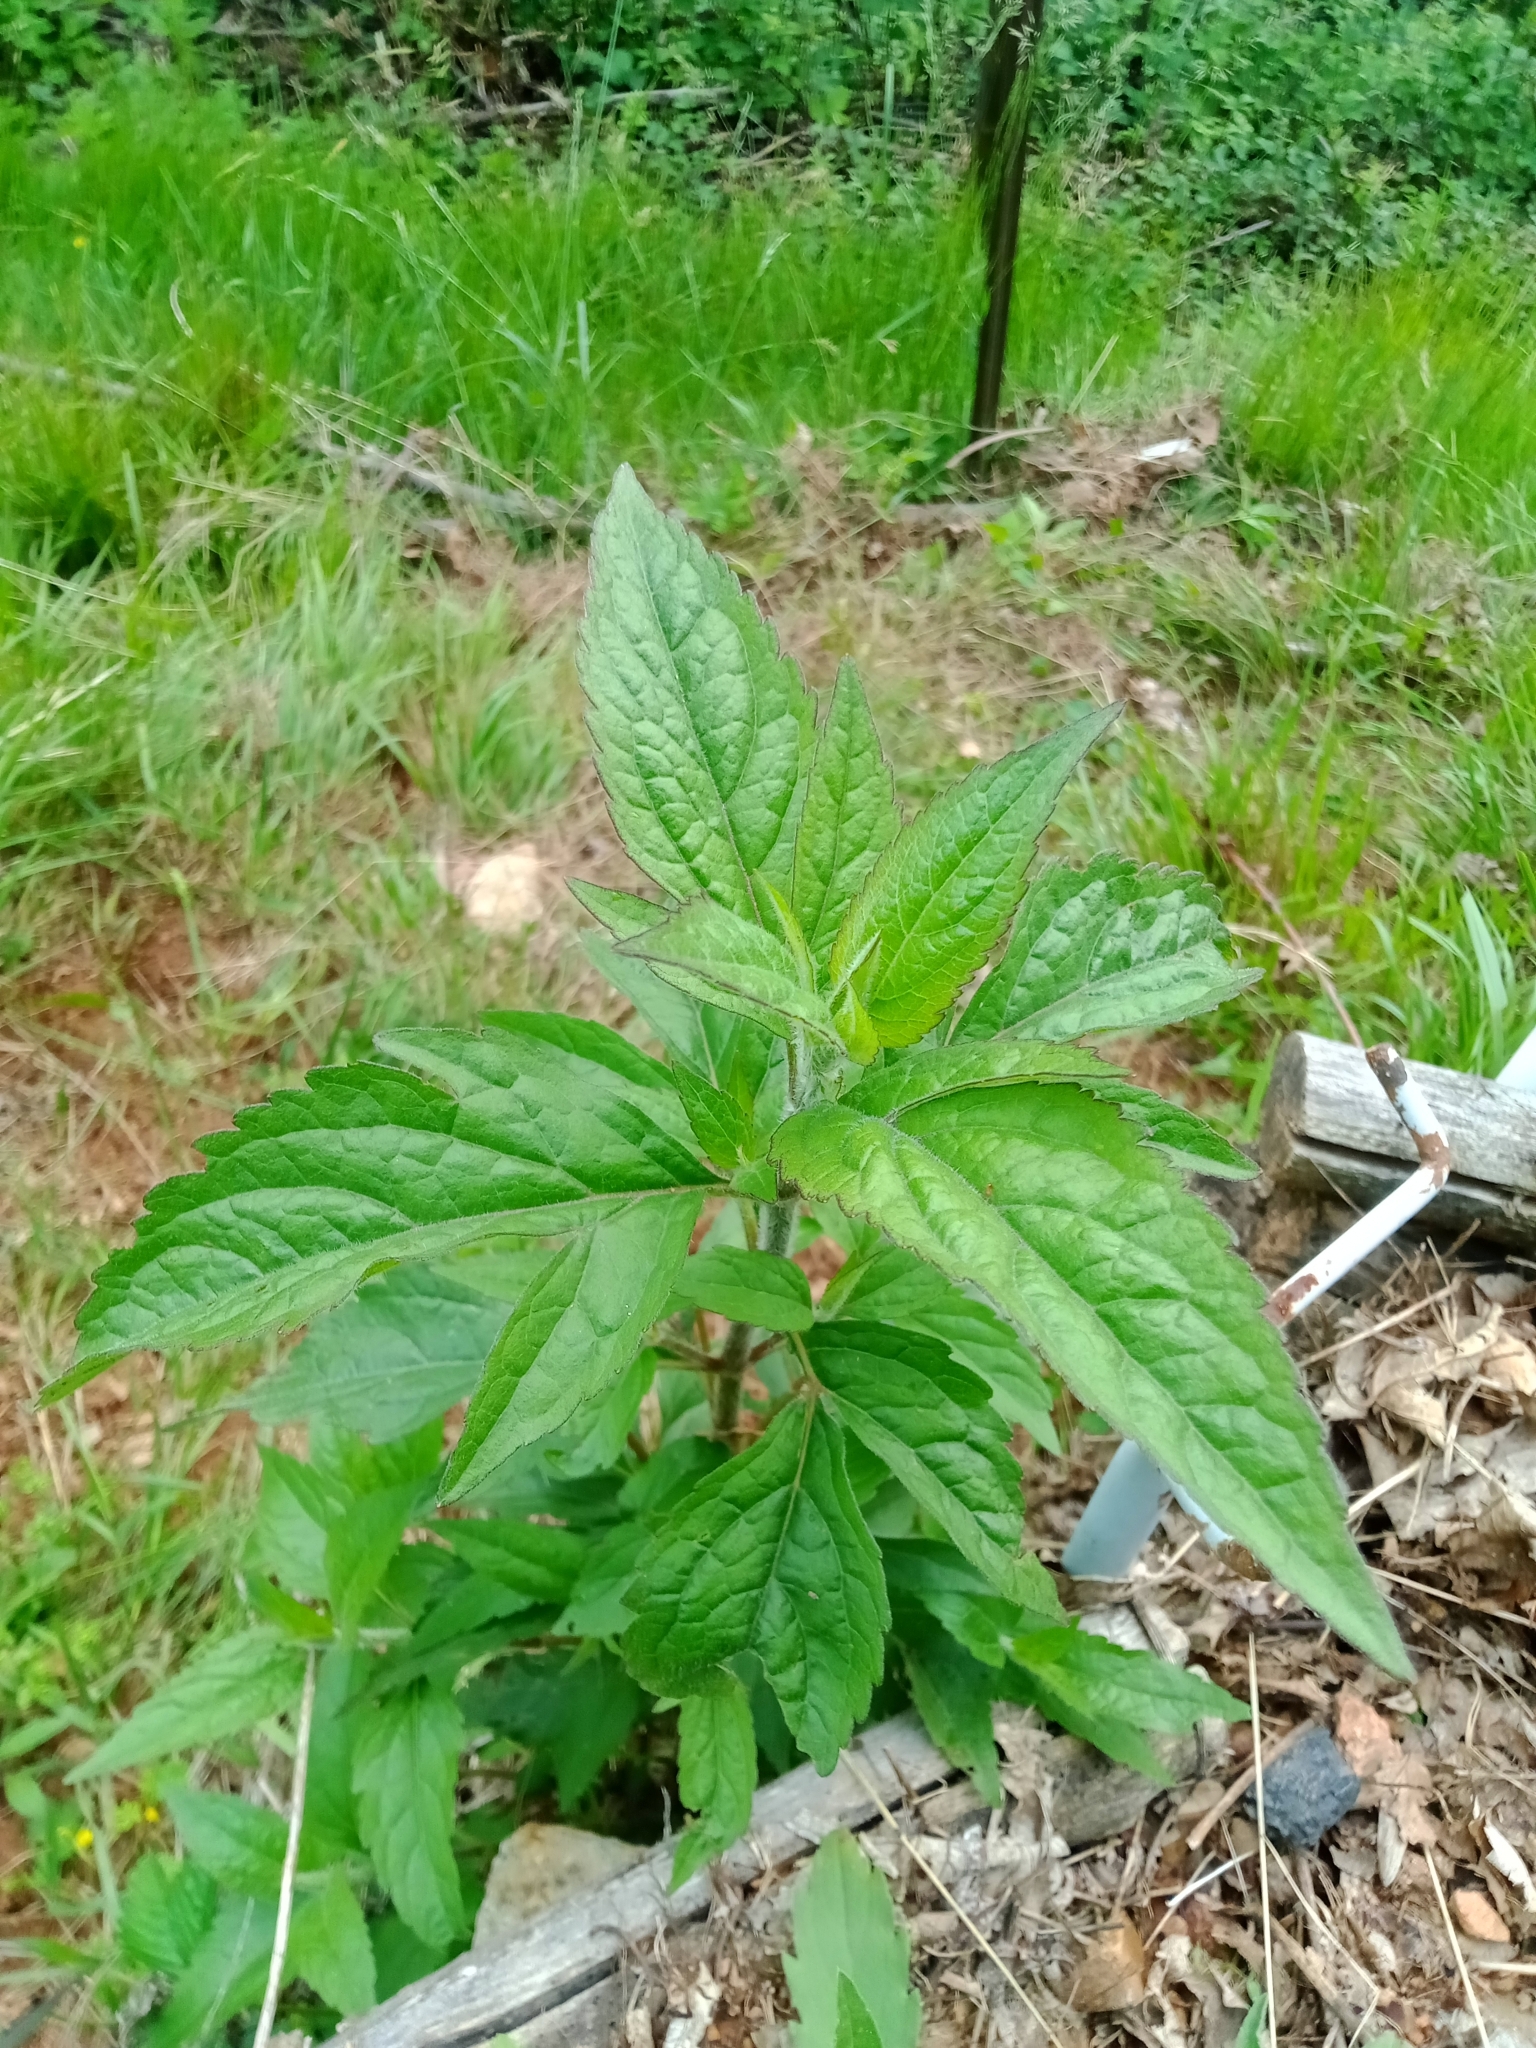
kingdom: Plantae
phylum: Tracheophyta
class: Magnoliopsida
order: Asterales
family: Asteraceae
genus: Eupatorium
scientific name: Eupatorium cannabinum
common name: Hemp-agrimony
